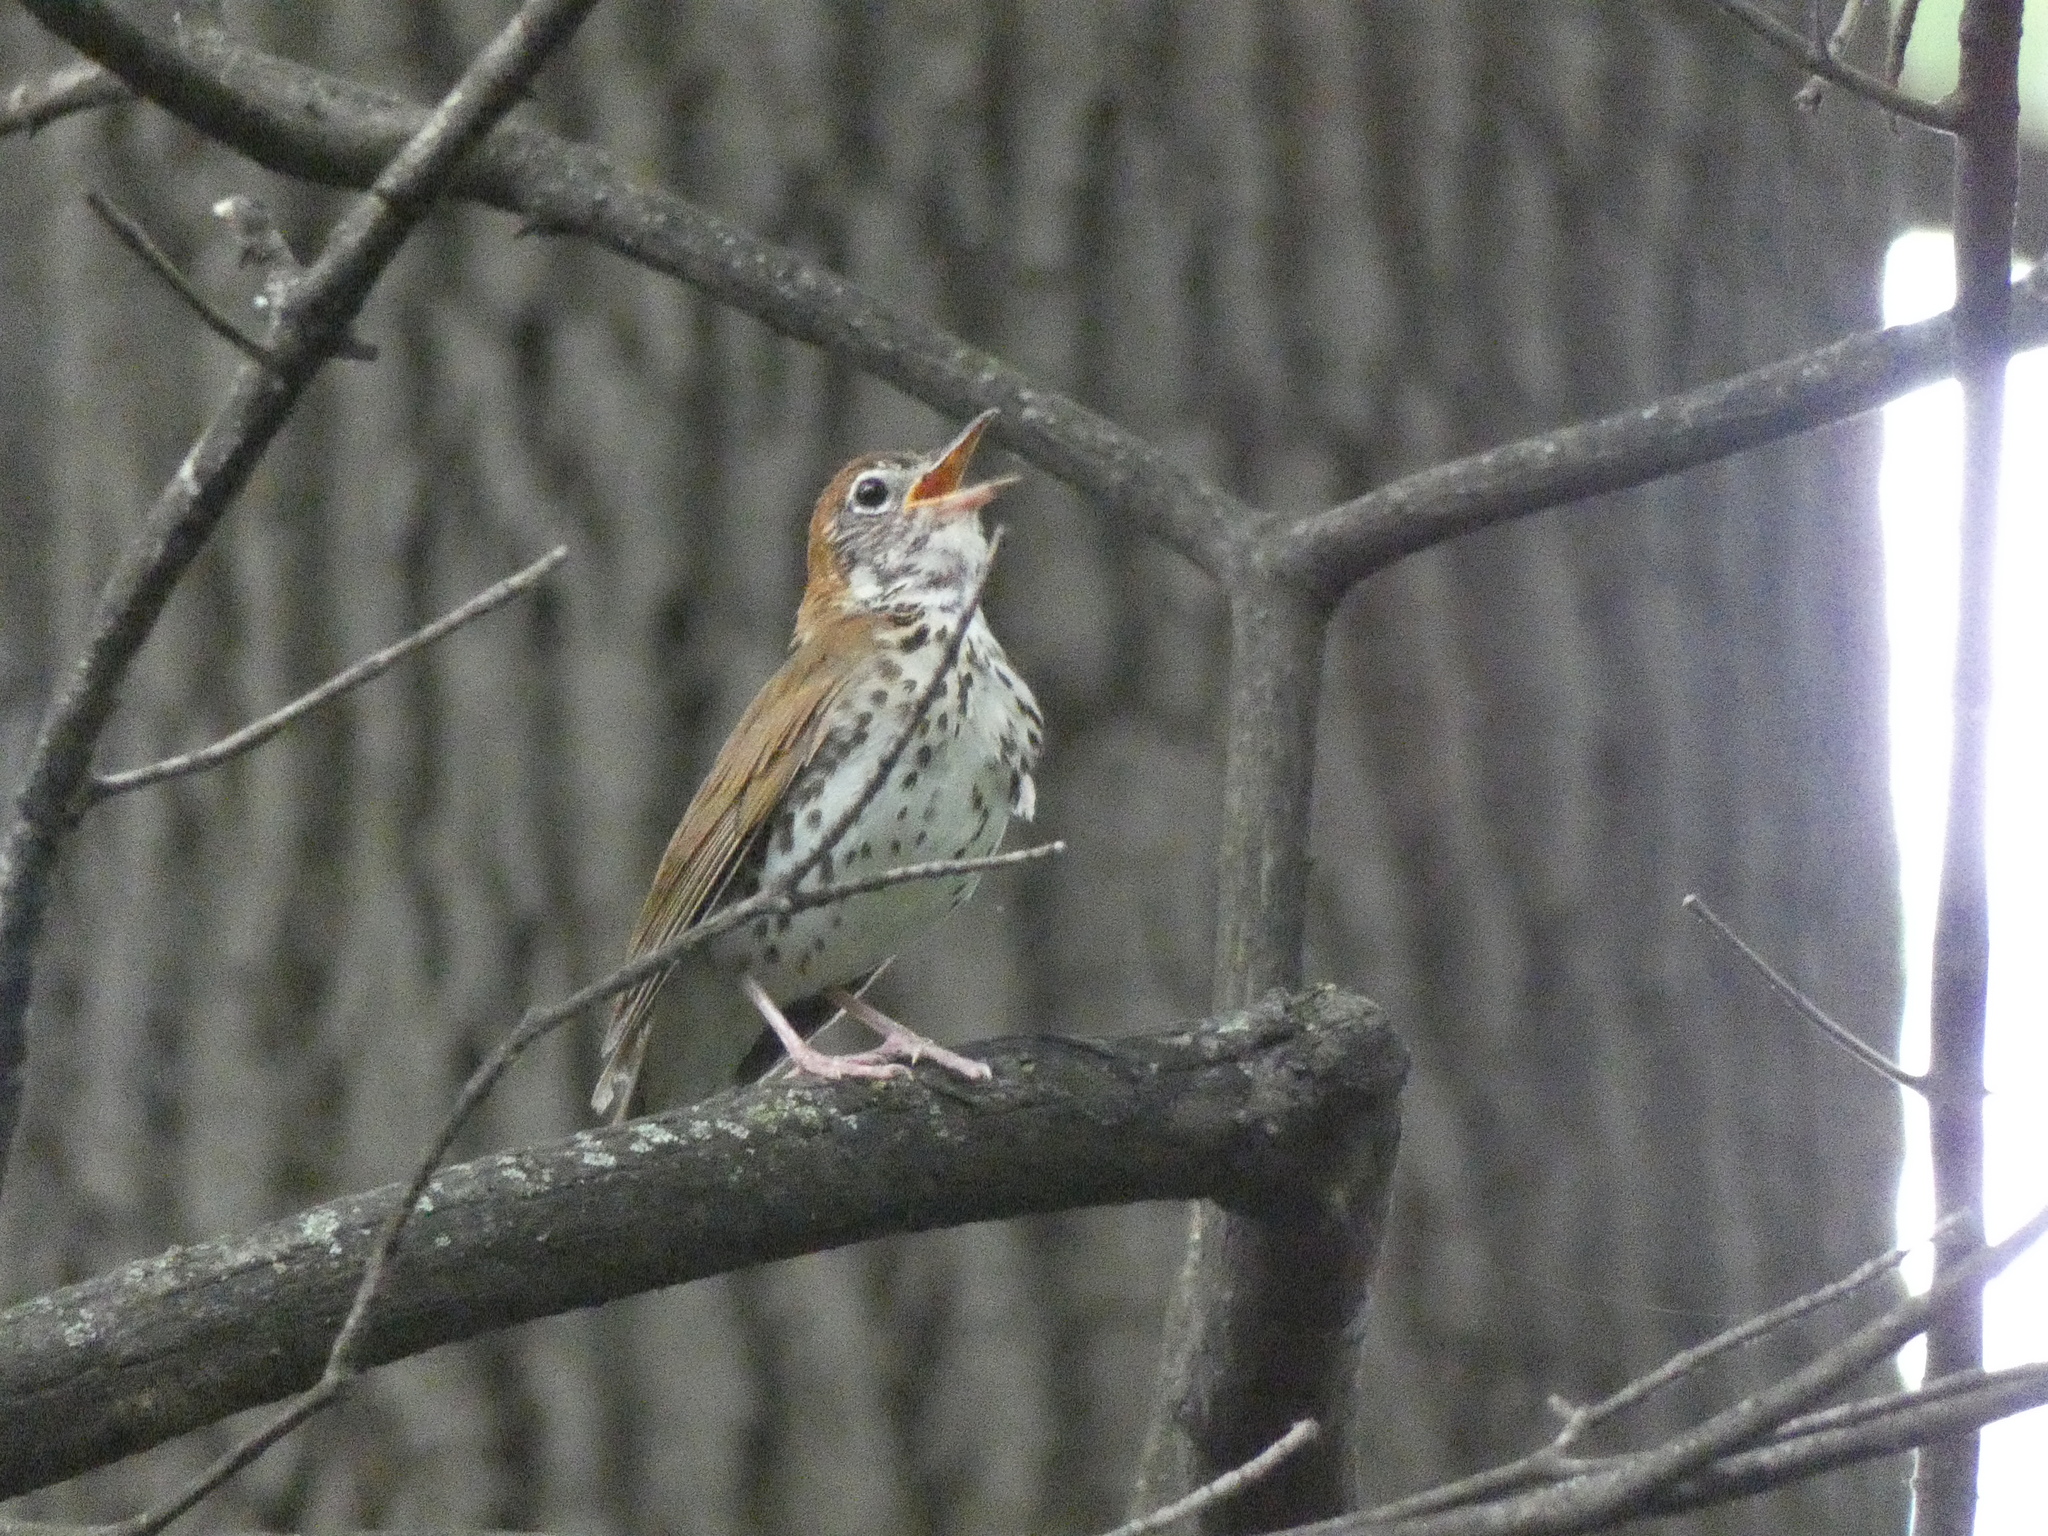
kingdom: Animalia
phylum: Chordata
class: Aves
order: Passeriformes
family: Turdidae
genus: Hylocichla
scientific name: Hylocichla mustelina
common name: Wood thrush
